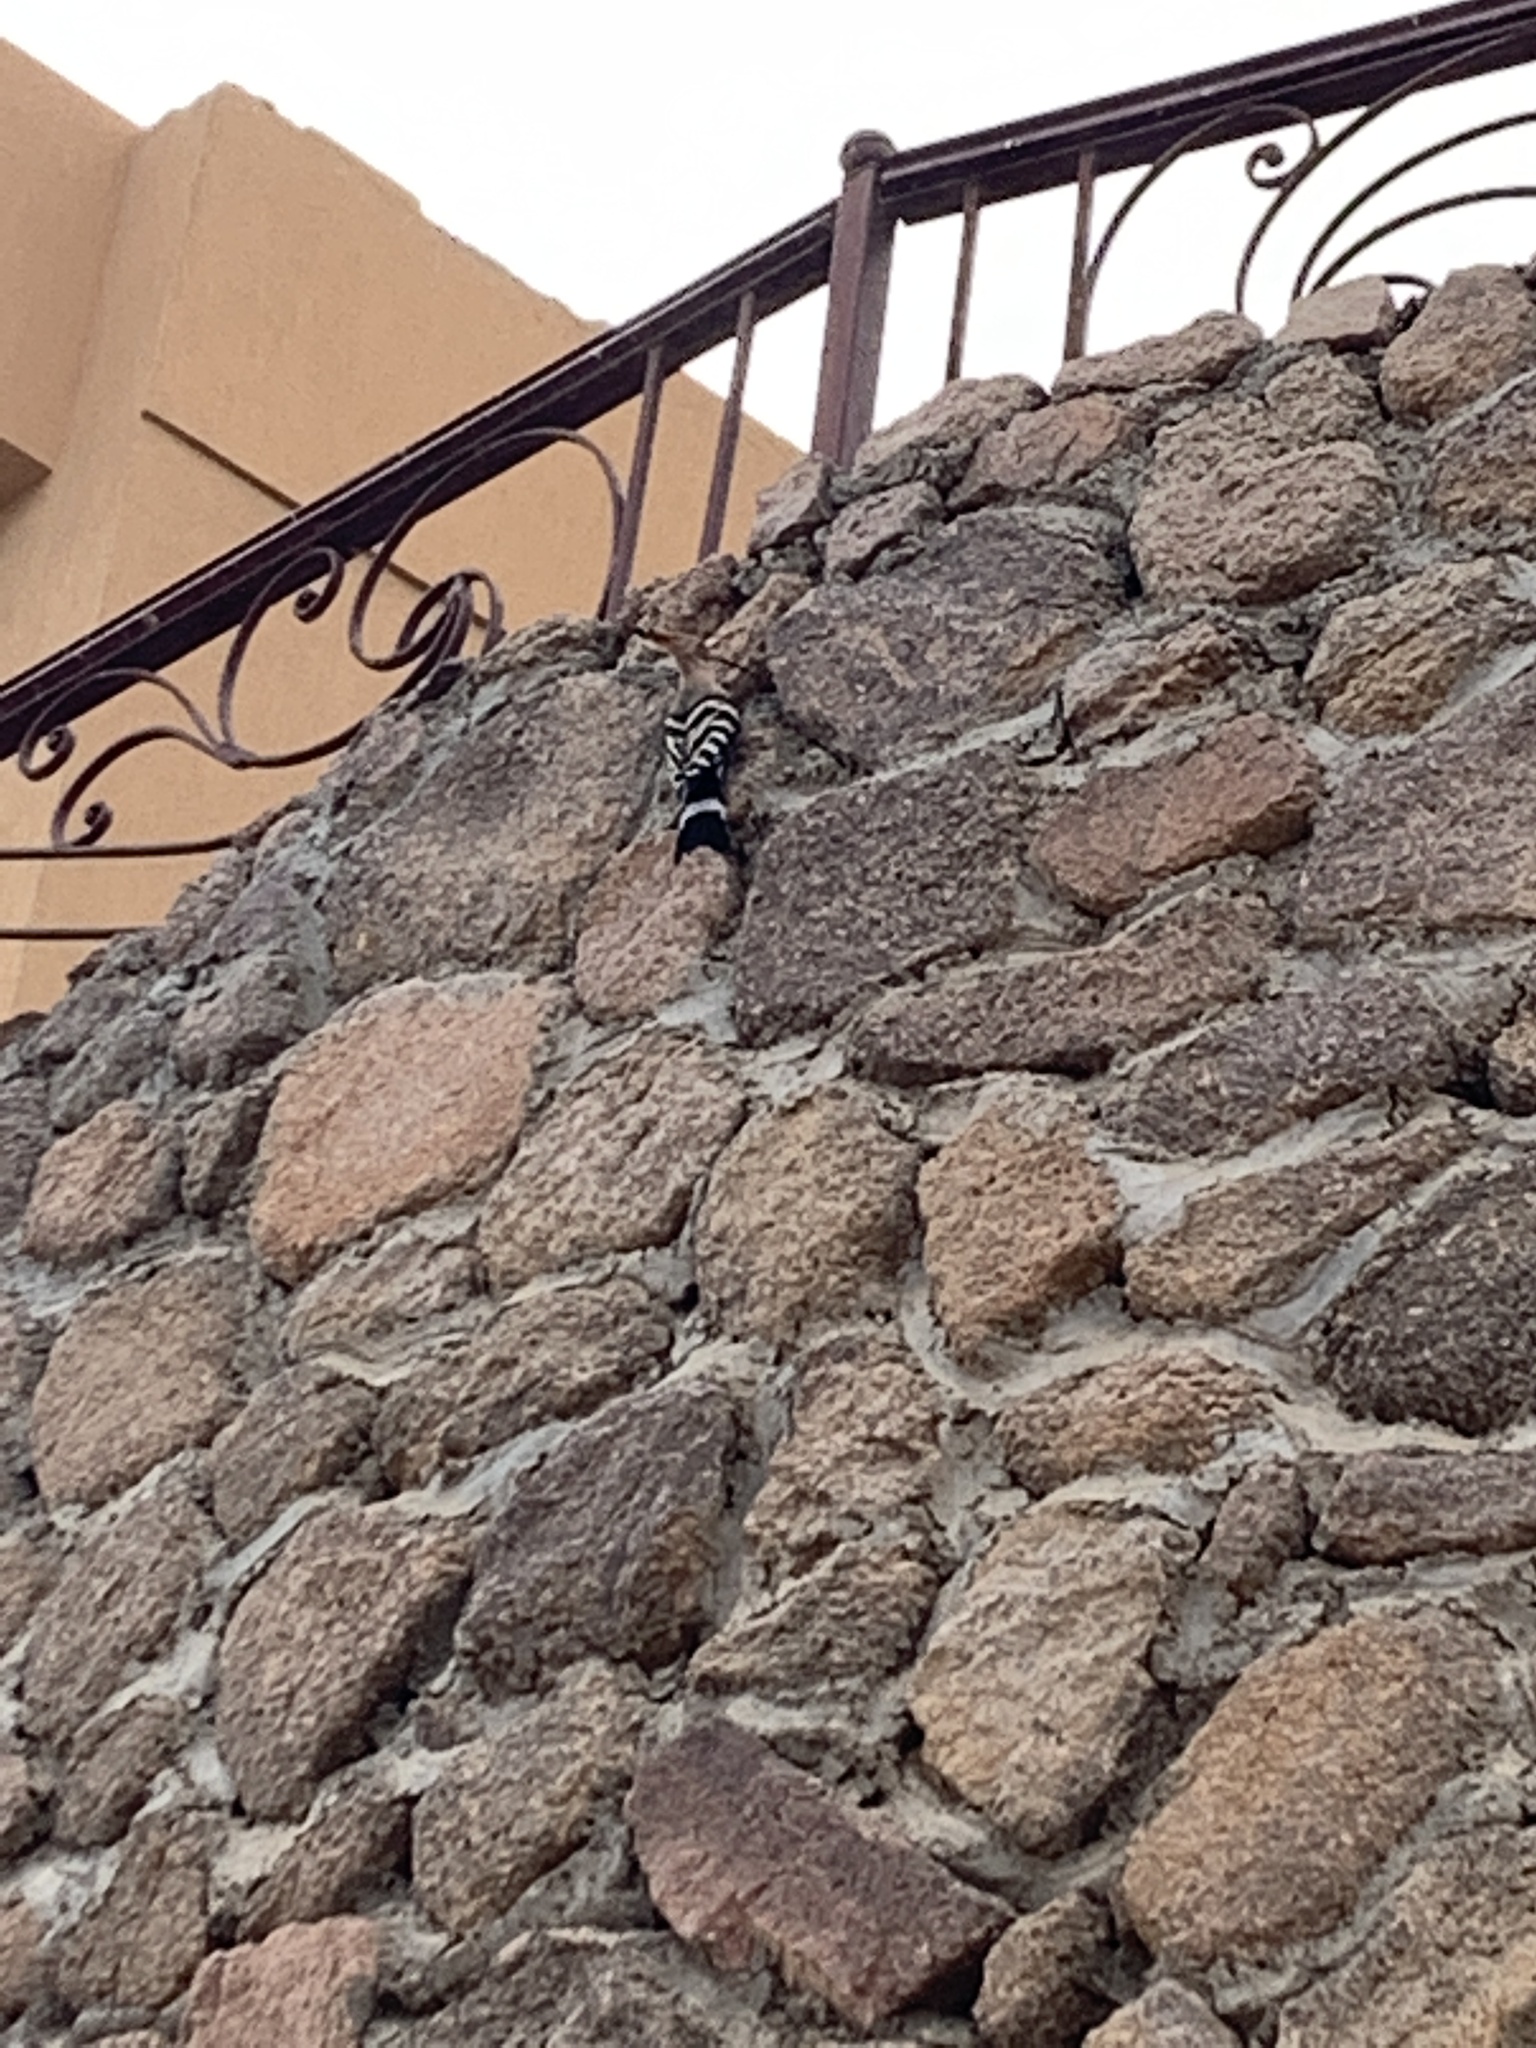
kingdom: Animalia
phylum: Chordata
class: Aves
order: Bucerotiformes
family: Upupidae
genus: Upupa
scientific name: Upupa epops
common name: Eurasian hoopoe
